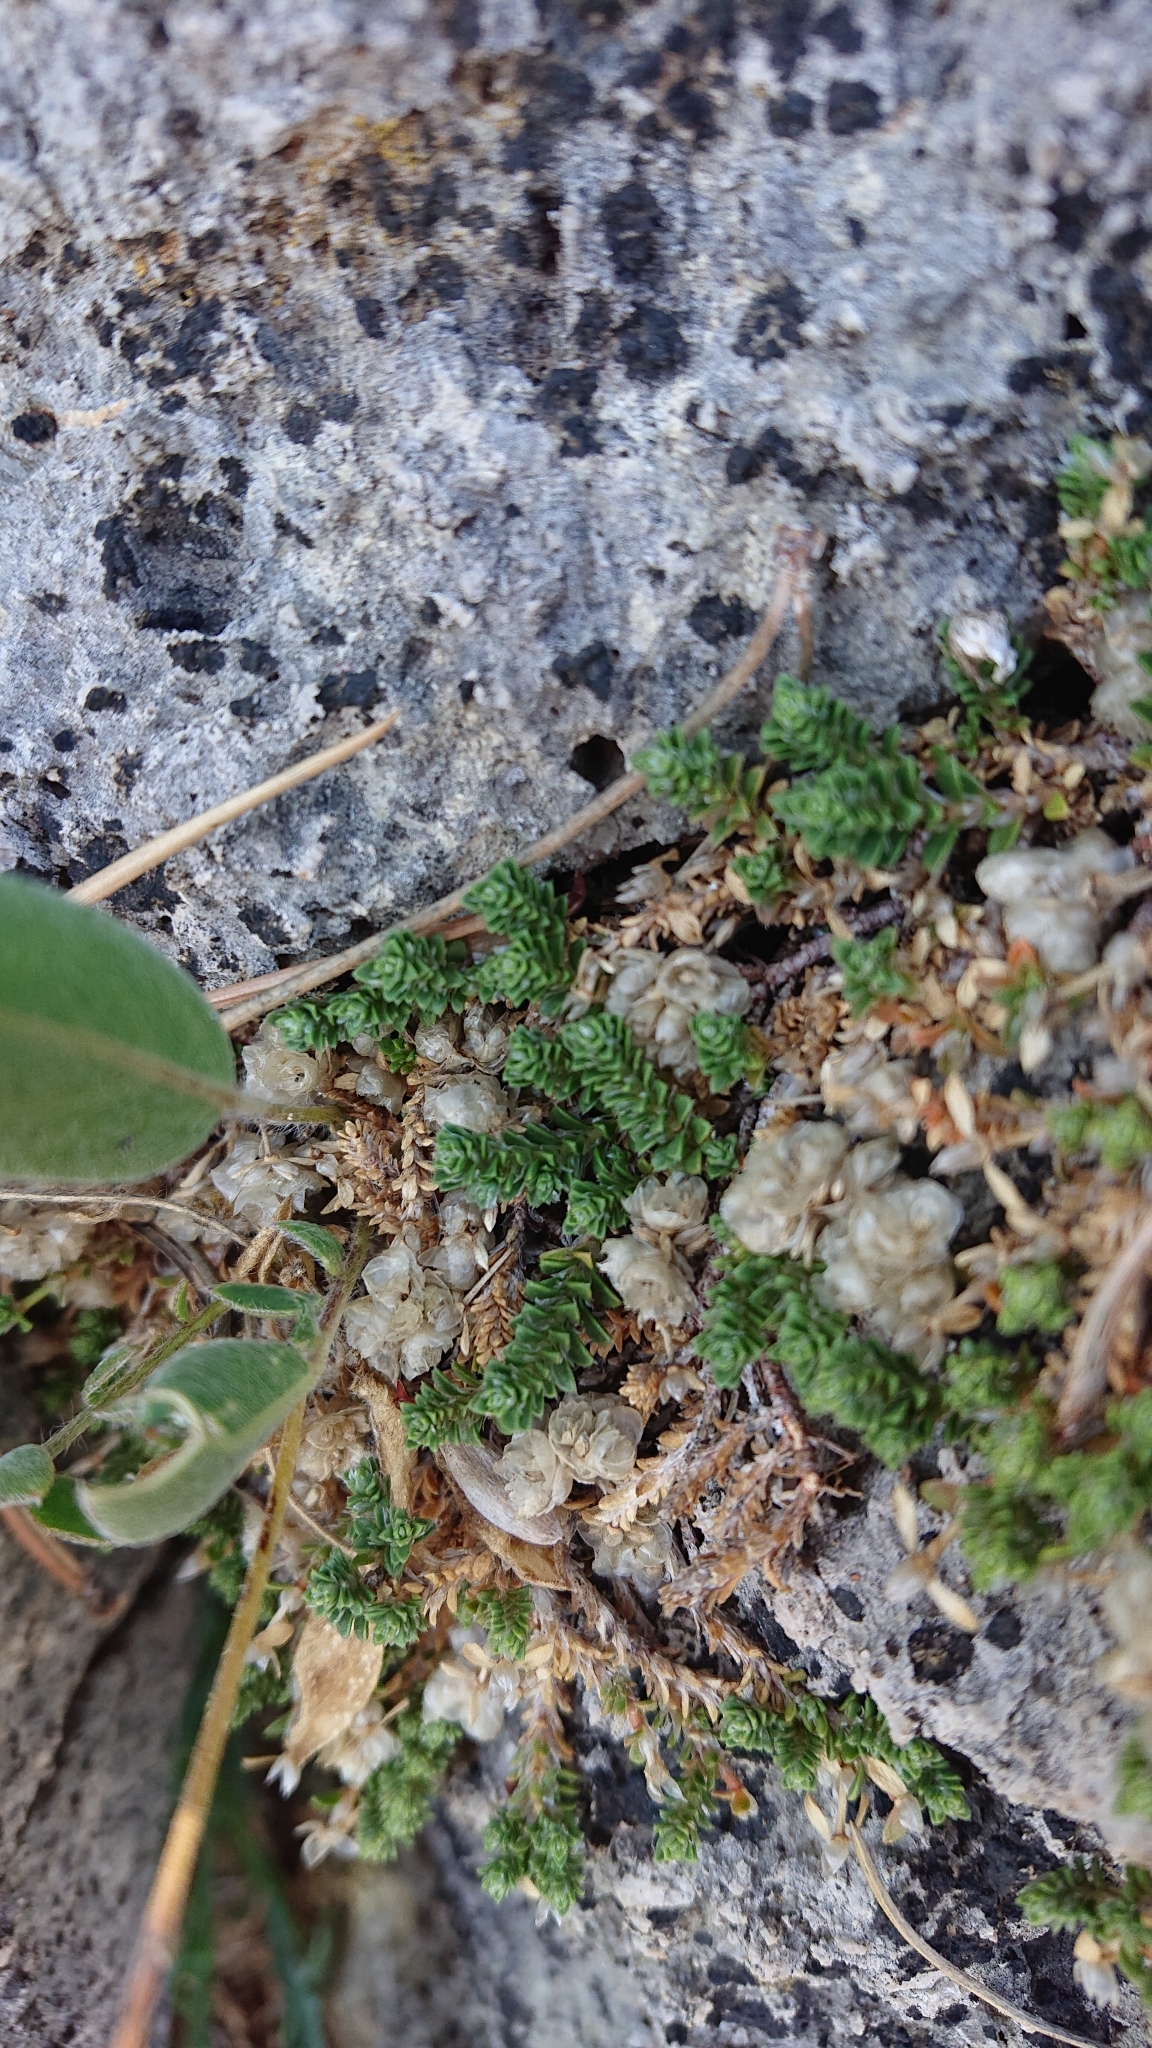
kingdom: Plantae
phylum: Tracheophyta
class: Magnoliopsida
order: Caryophyllales
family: Caryophyllaceae
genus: Paronychia
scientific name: Paronychia kapela
